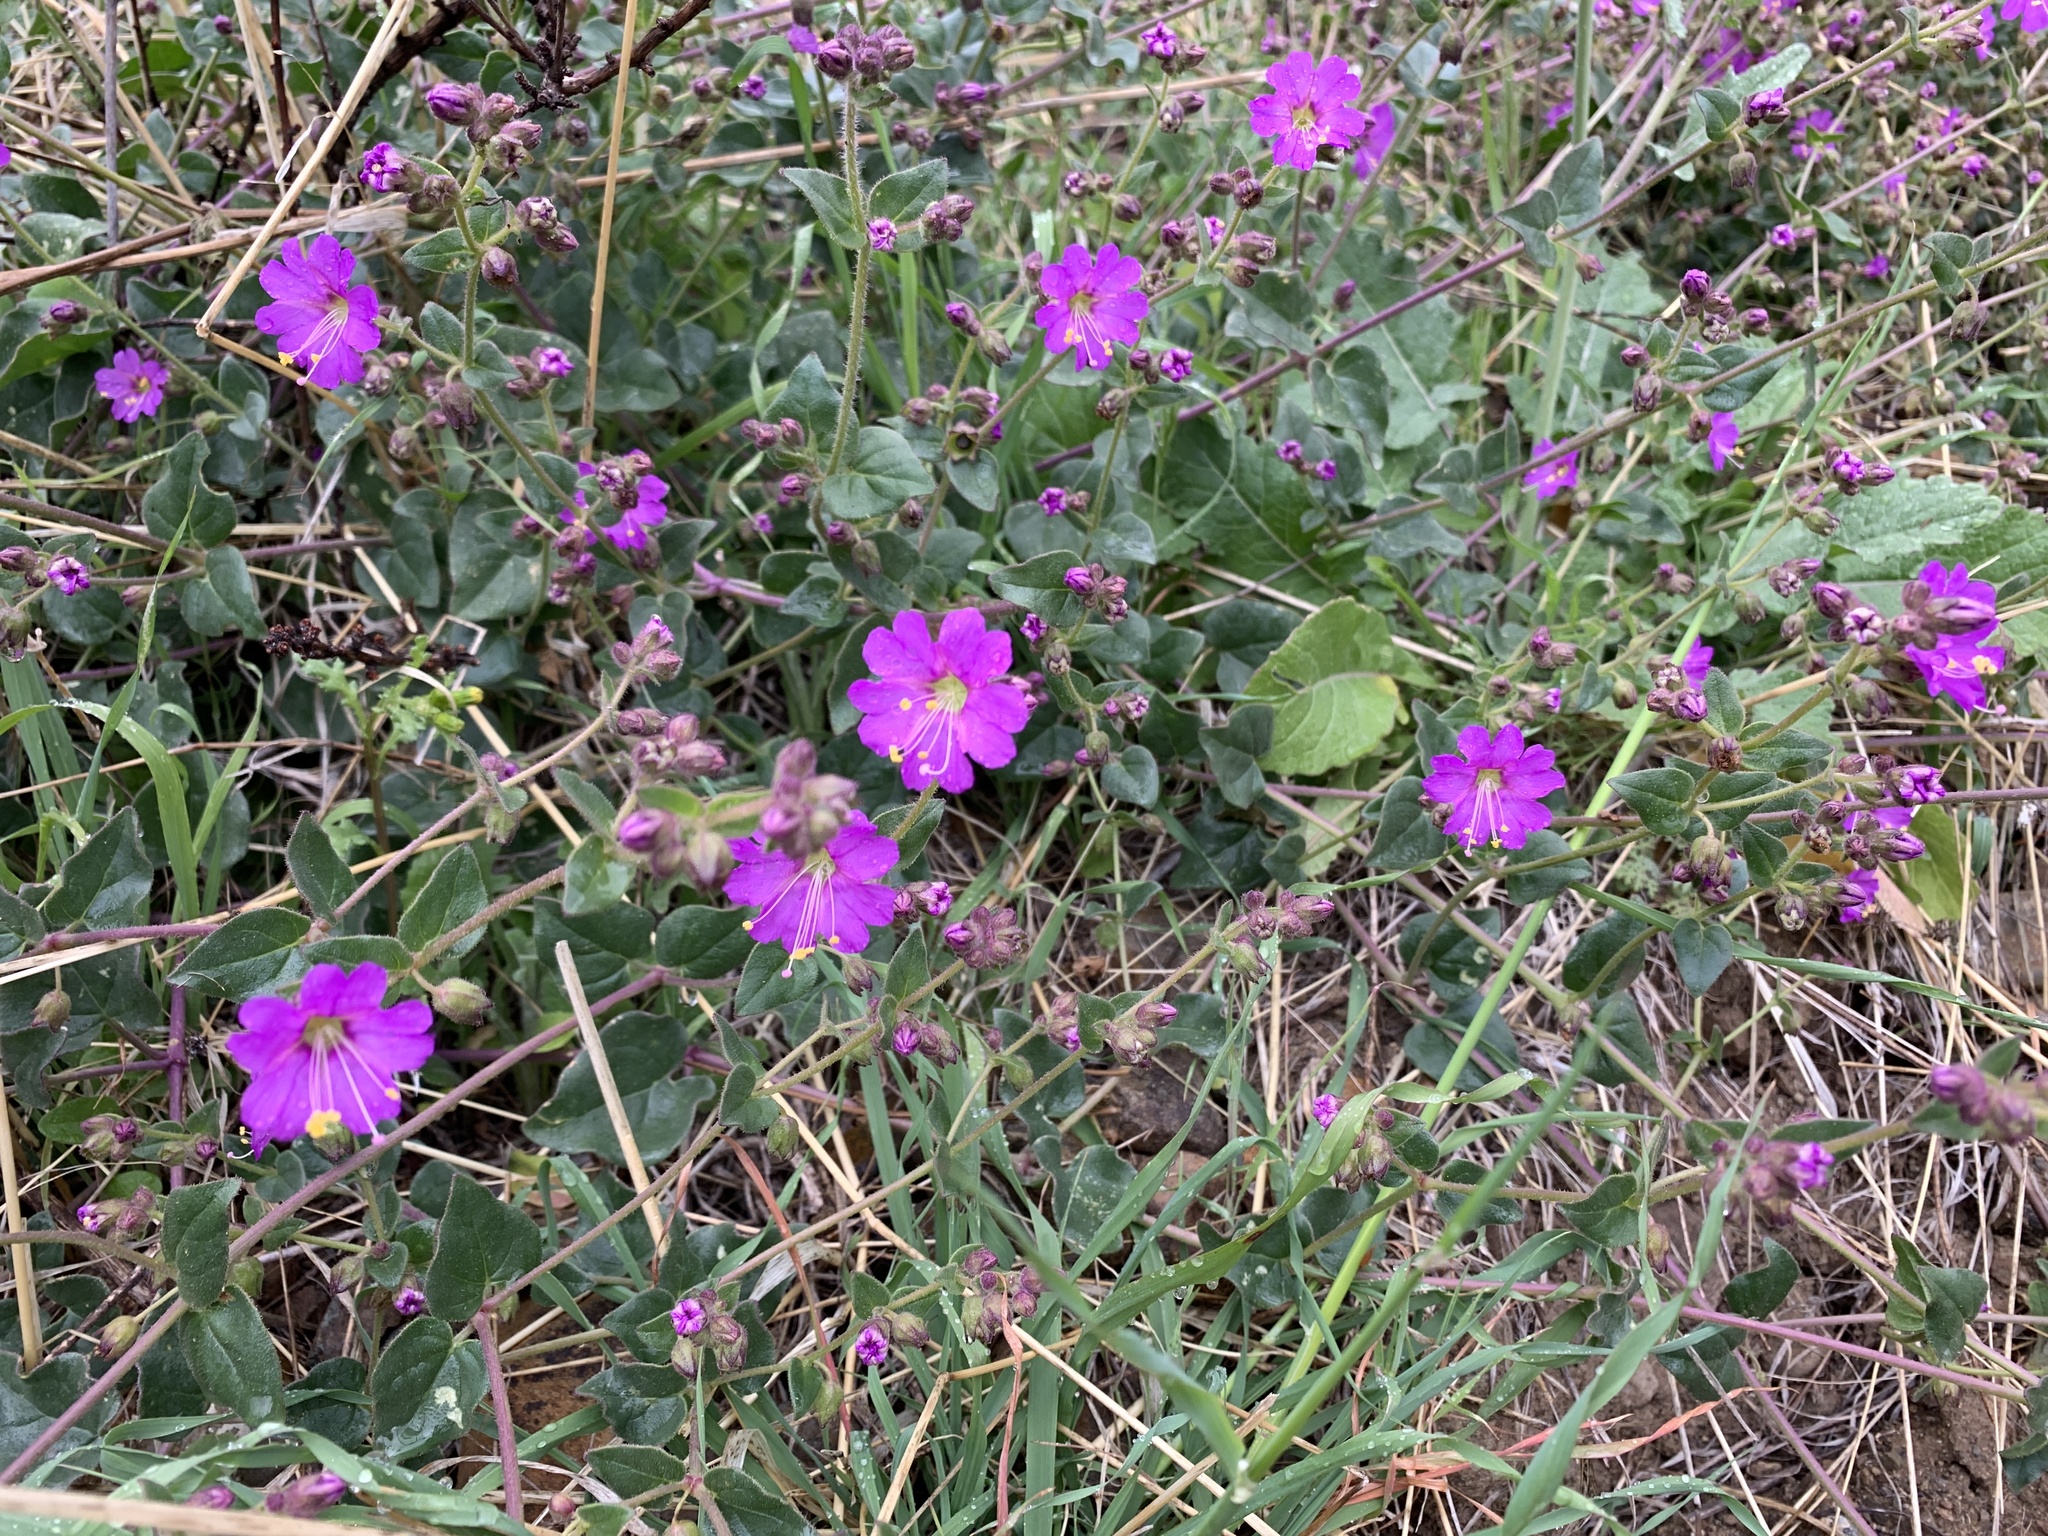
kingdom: Plantae
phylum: Tracheophyta
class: Magnoliopsida
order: Caryophyllales
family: Nyctaginaceae
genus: Mirabilis
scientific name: Mirabilis laevis
